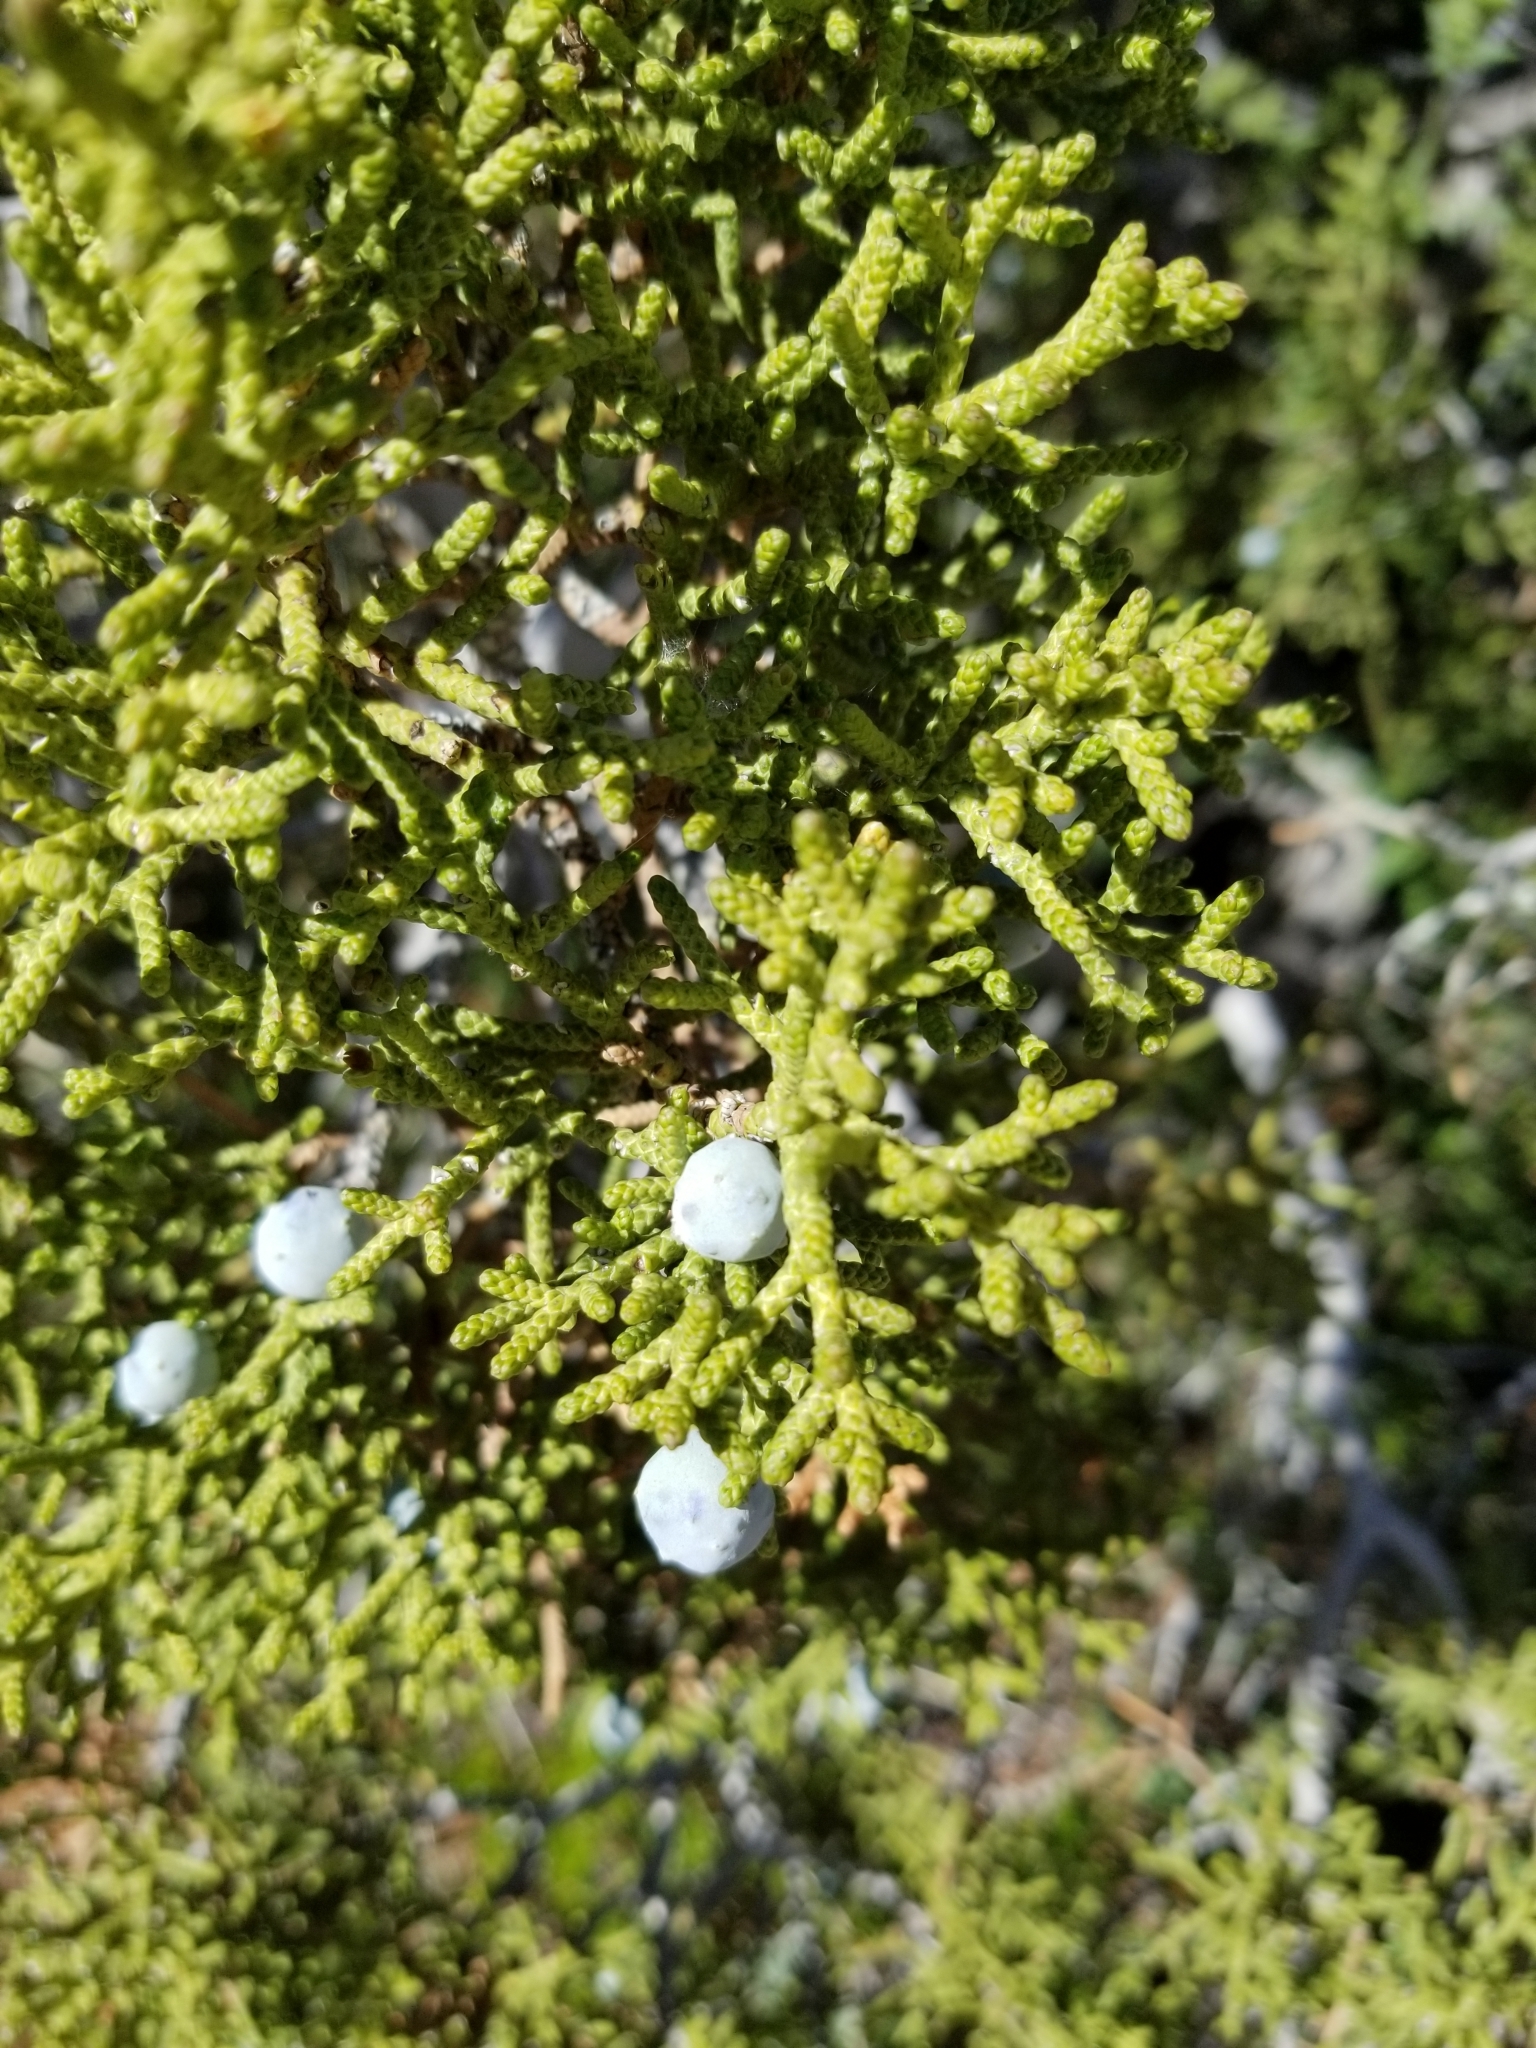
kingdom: Plantae
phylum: Tracheophyta
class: Pinopsida
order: Pinales
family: Cupressaceae
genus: Juniperus
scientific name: Juniperus californica
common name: California juniper
